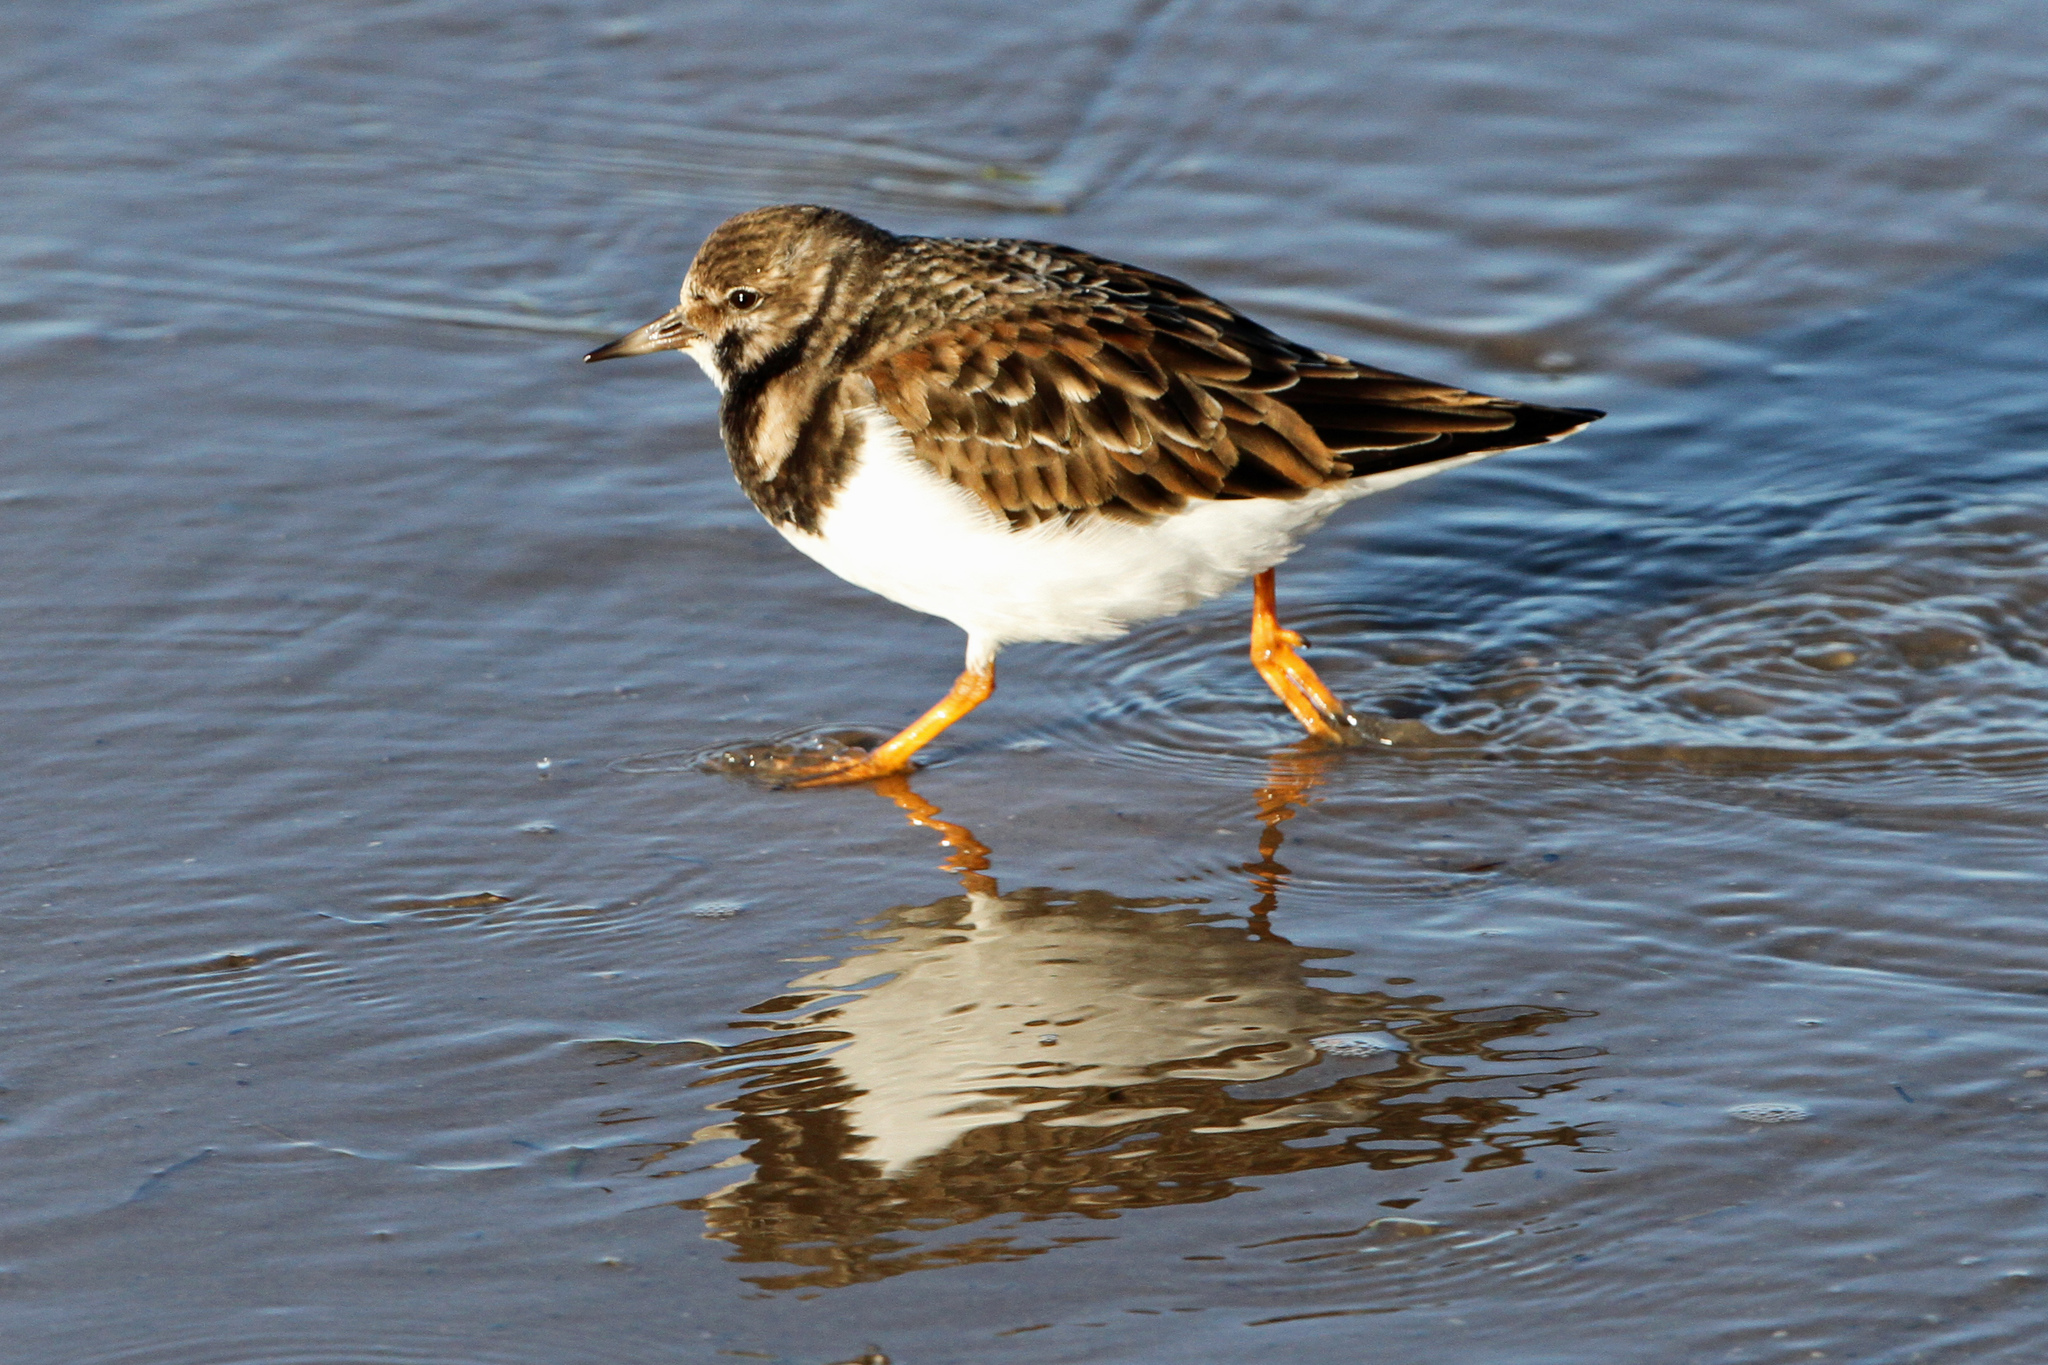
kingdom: Animalia
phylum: Chordata
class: Aves
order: Charadriiformes
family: Scolopacidae
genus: Arenaria
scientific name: Arenaria interpres
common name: Ruddy turnstone
